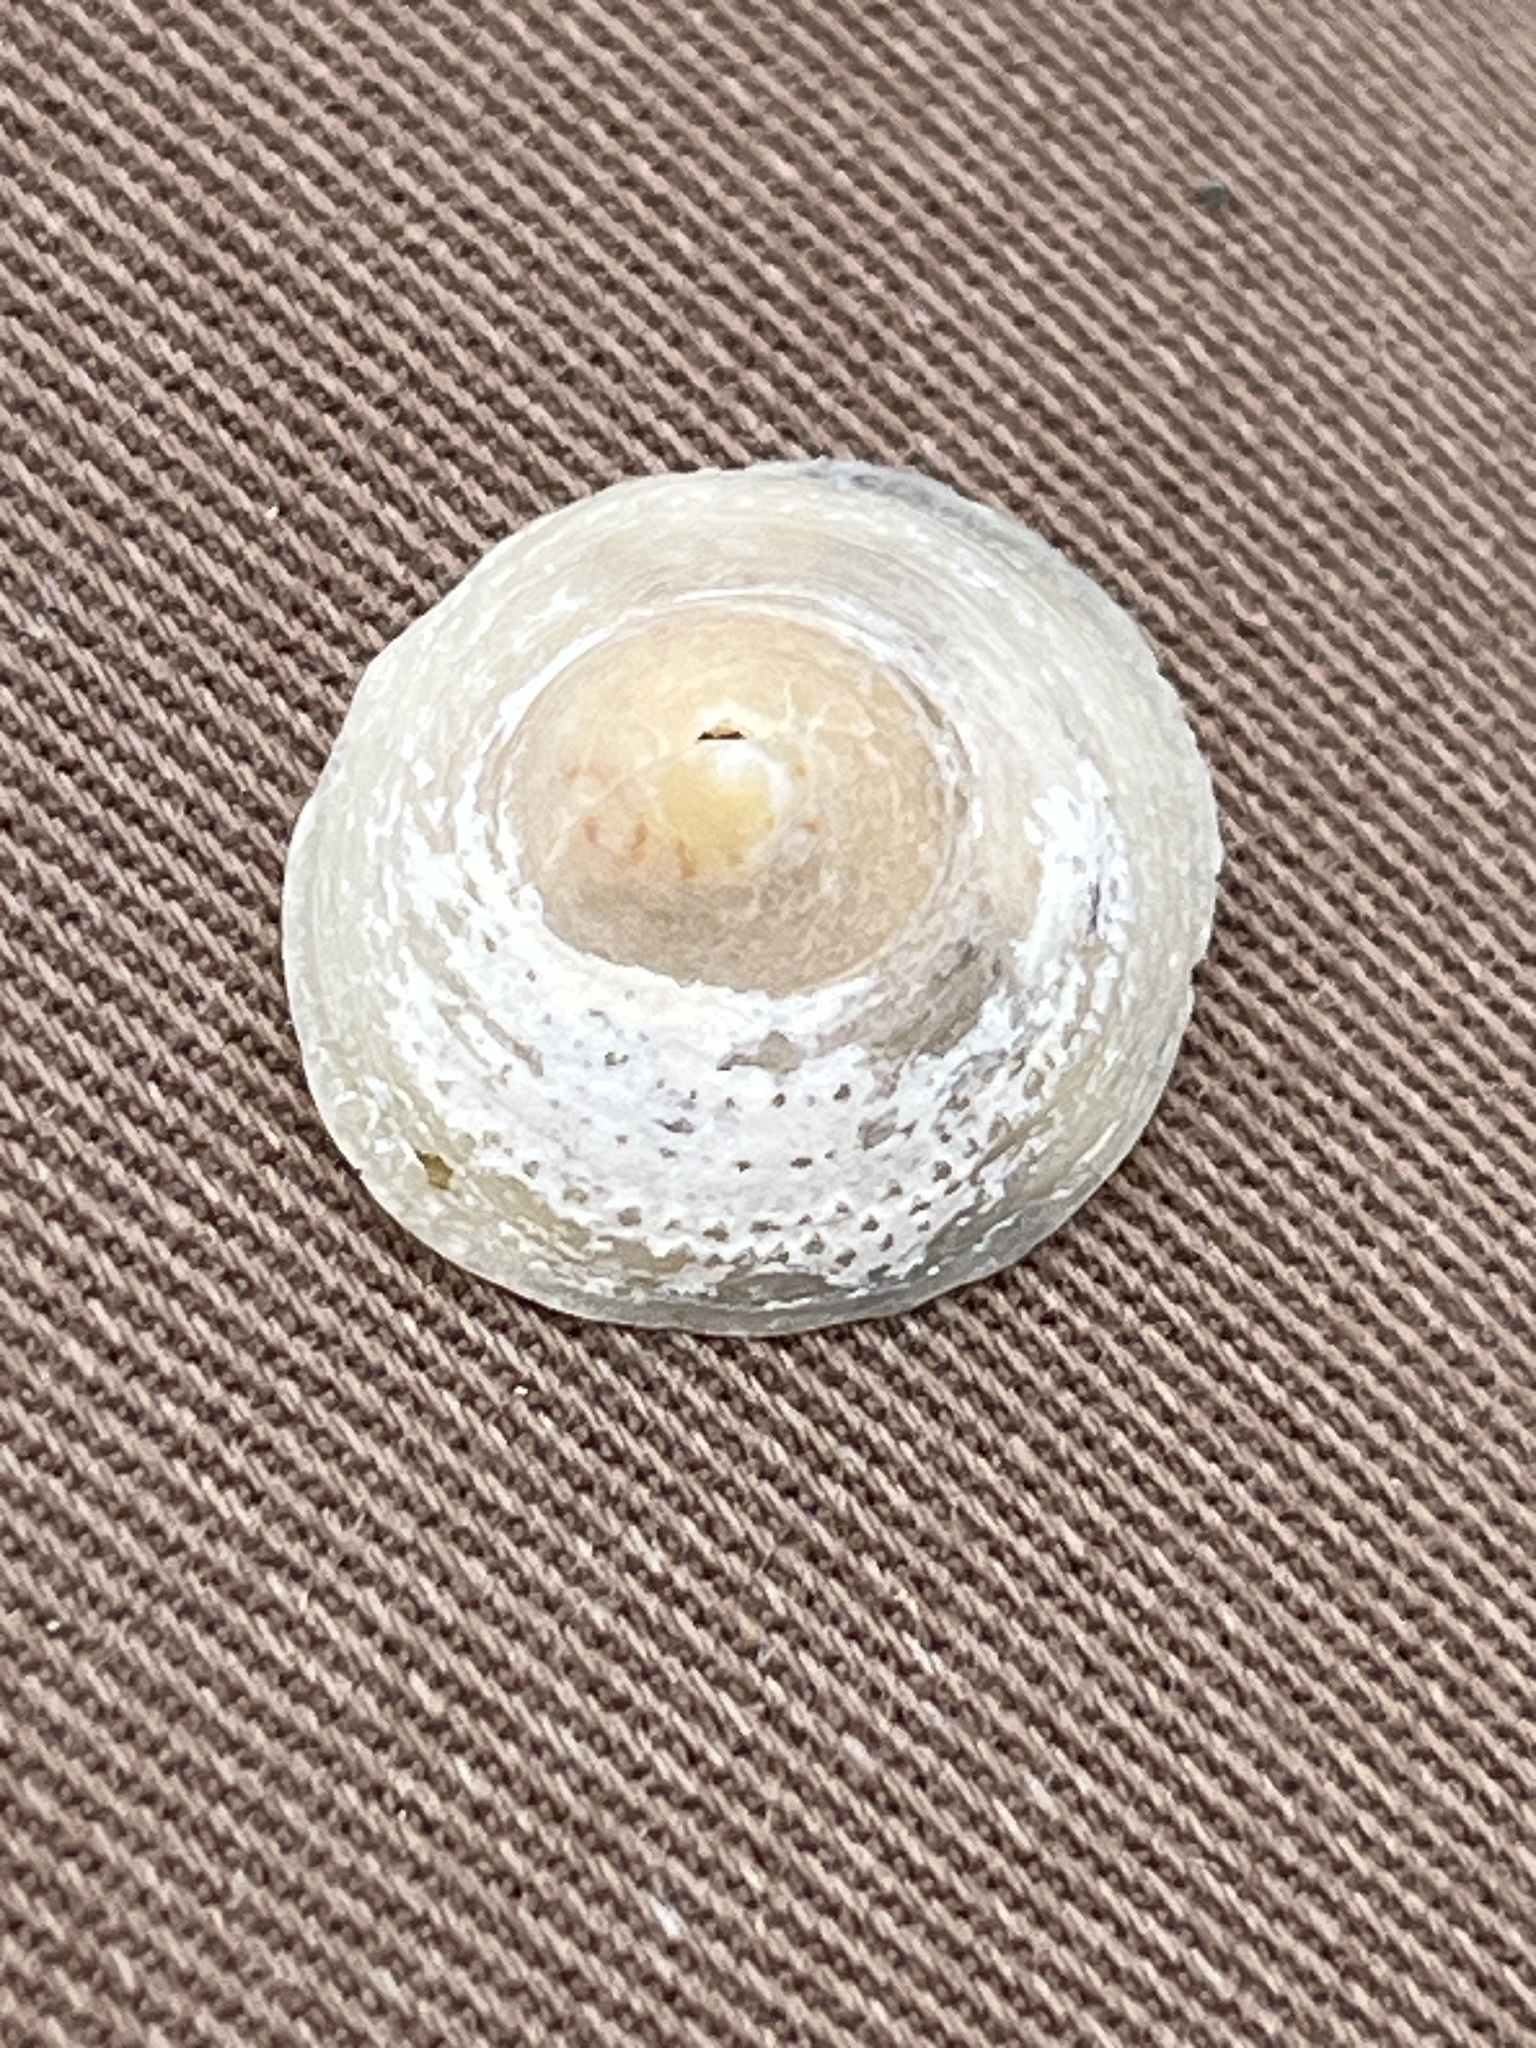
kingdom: Animalia
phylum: Mollusca
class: Gastropoda
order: Littorinimorpha
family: Calyptraeidae
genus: Calyptraea
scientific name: Calyptraea chinensis
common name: Chinaman's hat
